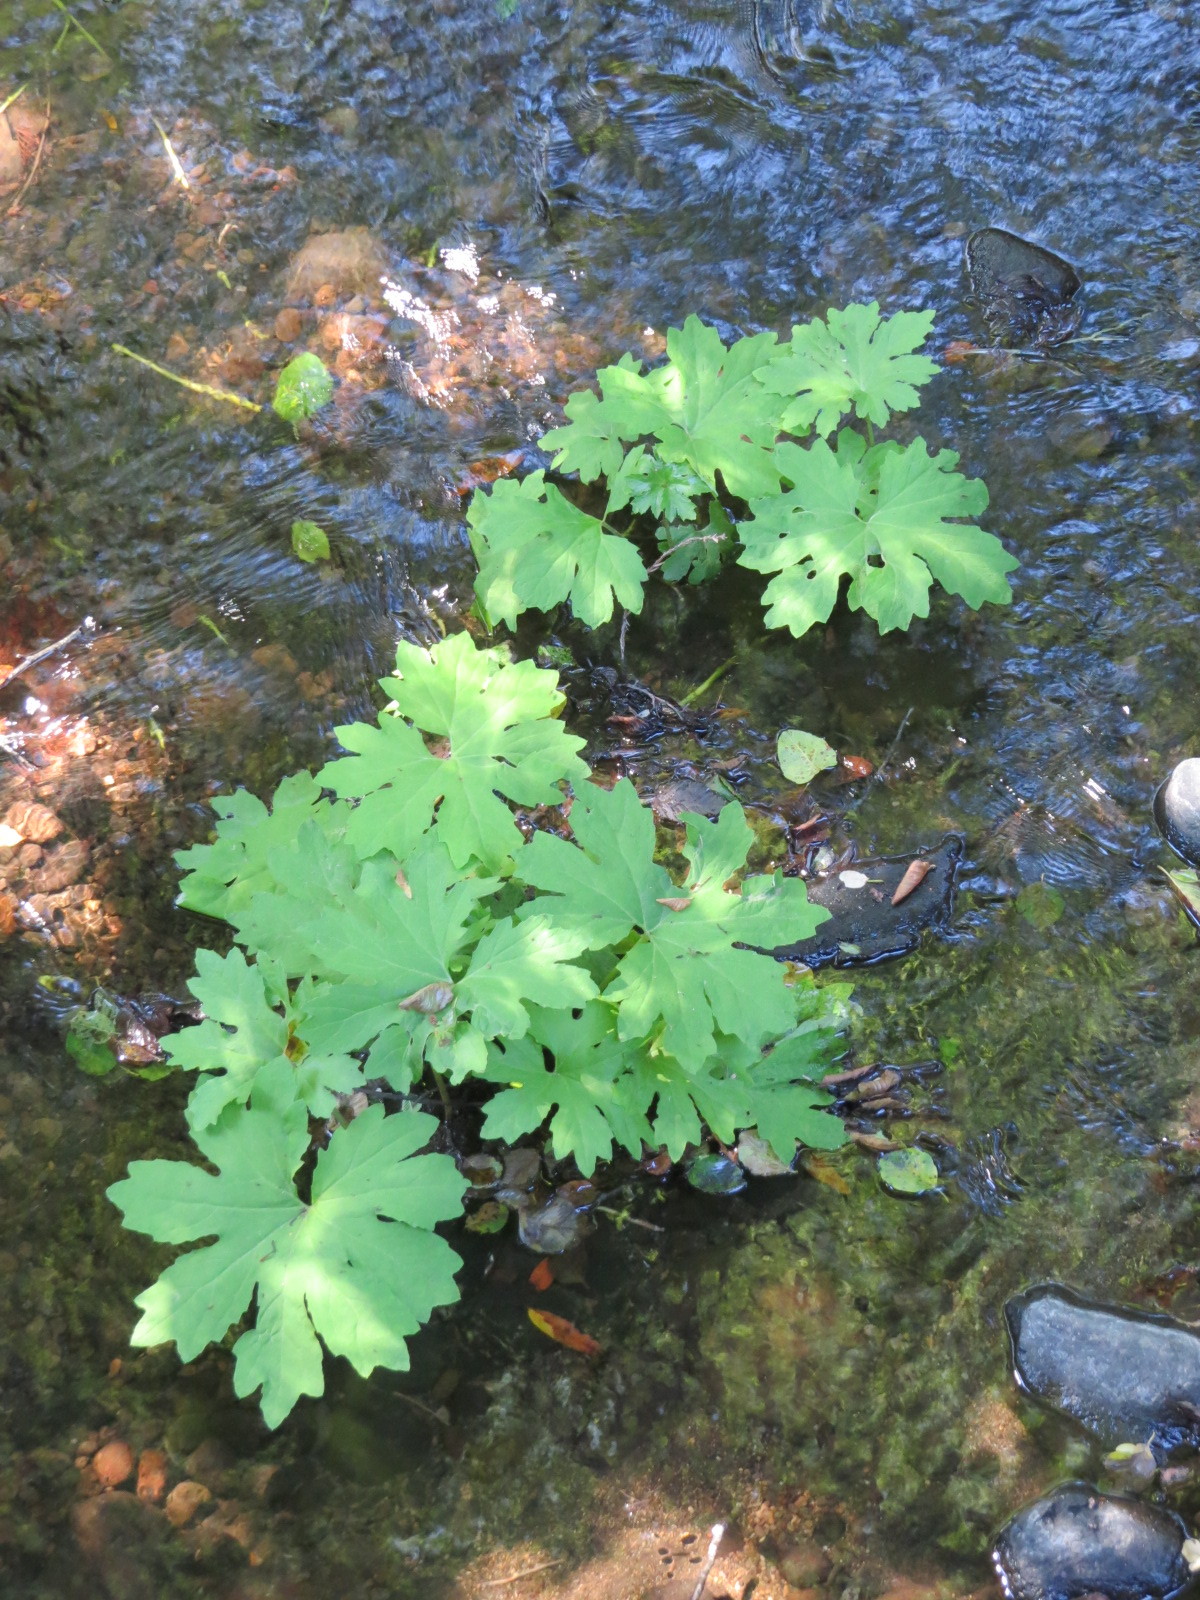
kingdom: Plantae
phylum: Tracheophyta
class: Magnoliopsida
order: Asterales
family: Asteraceae
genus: Petasites
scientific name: Petasites frigidus
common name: Arctic butterbur
